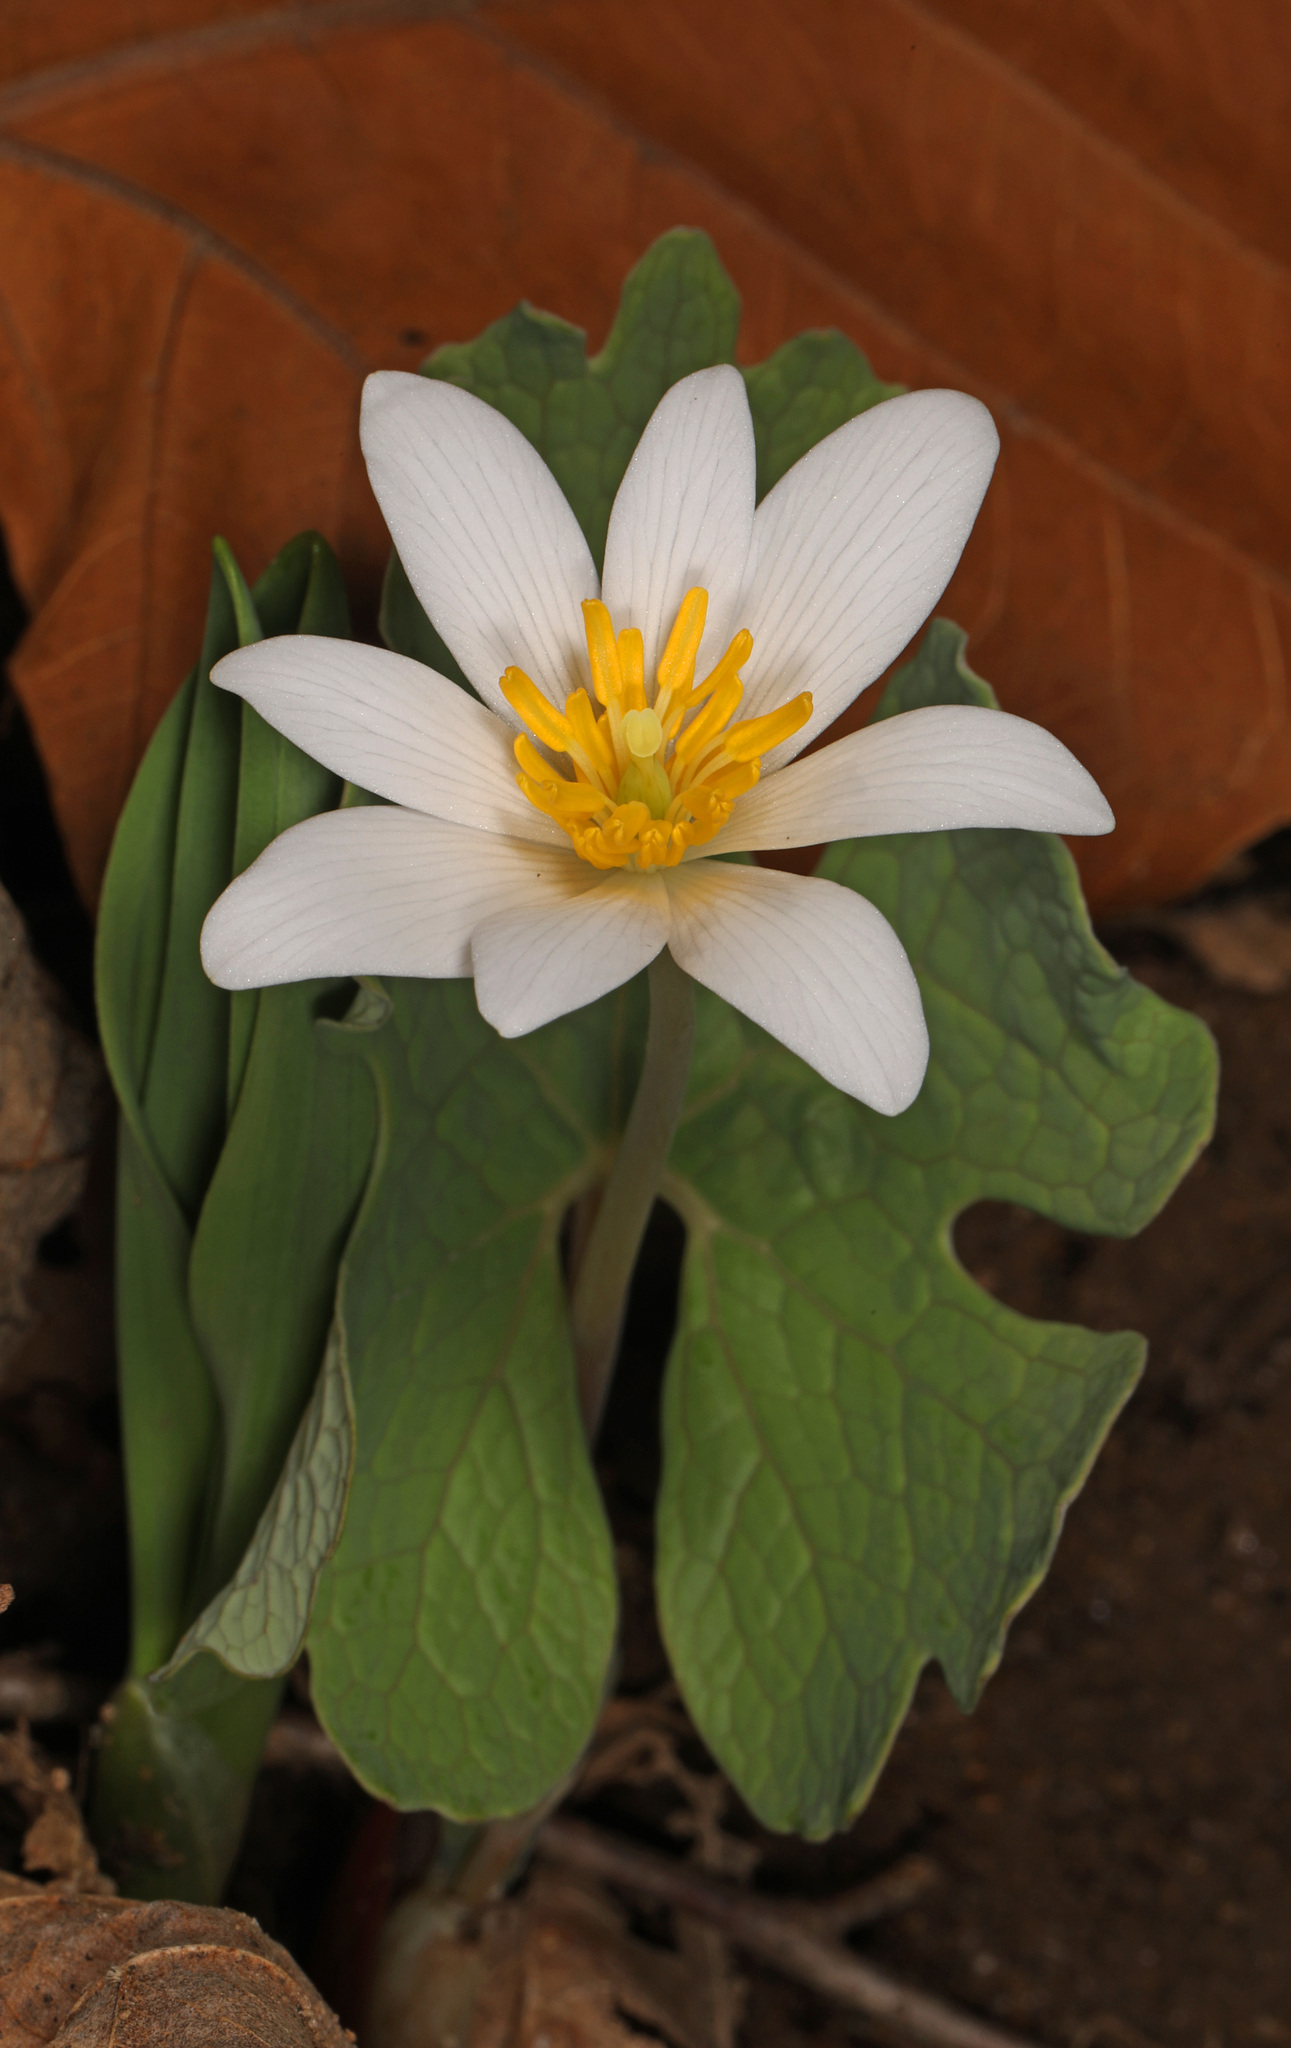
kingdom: Plantae
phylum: Tracheophyta
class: Magnoliopsida
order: Ranunculales
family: Papaveraceae
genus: Sanguinaria
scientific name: Sanguinaria canadensis
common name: Bloodroot
